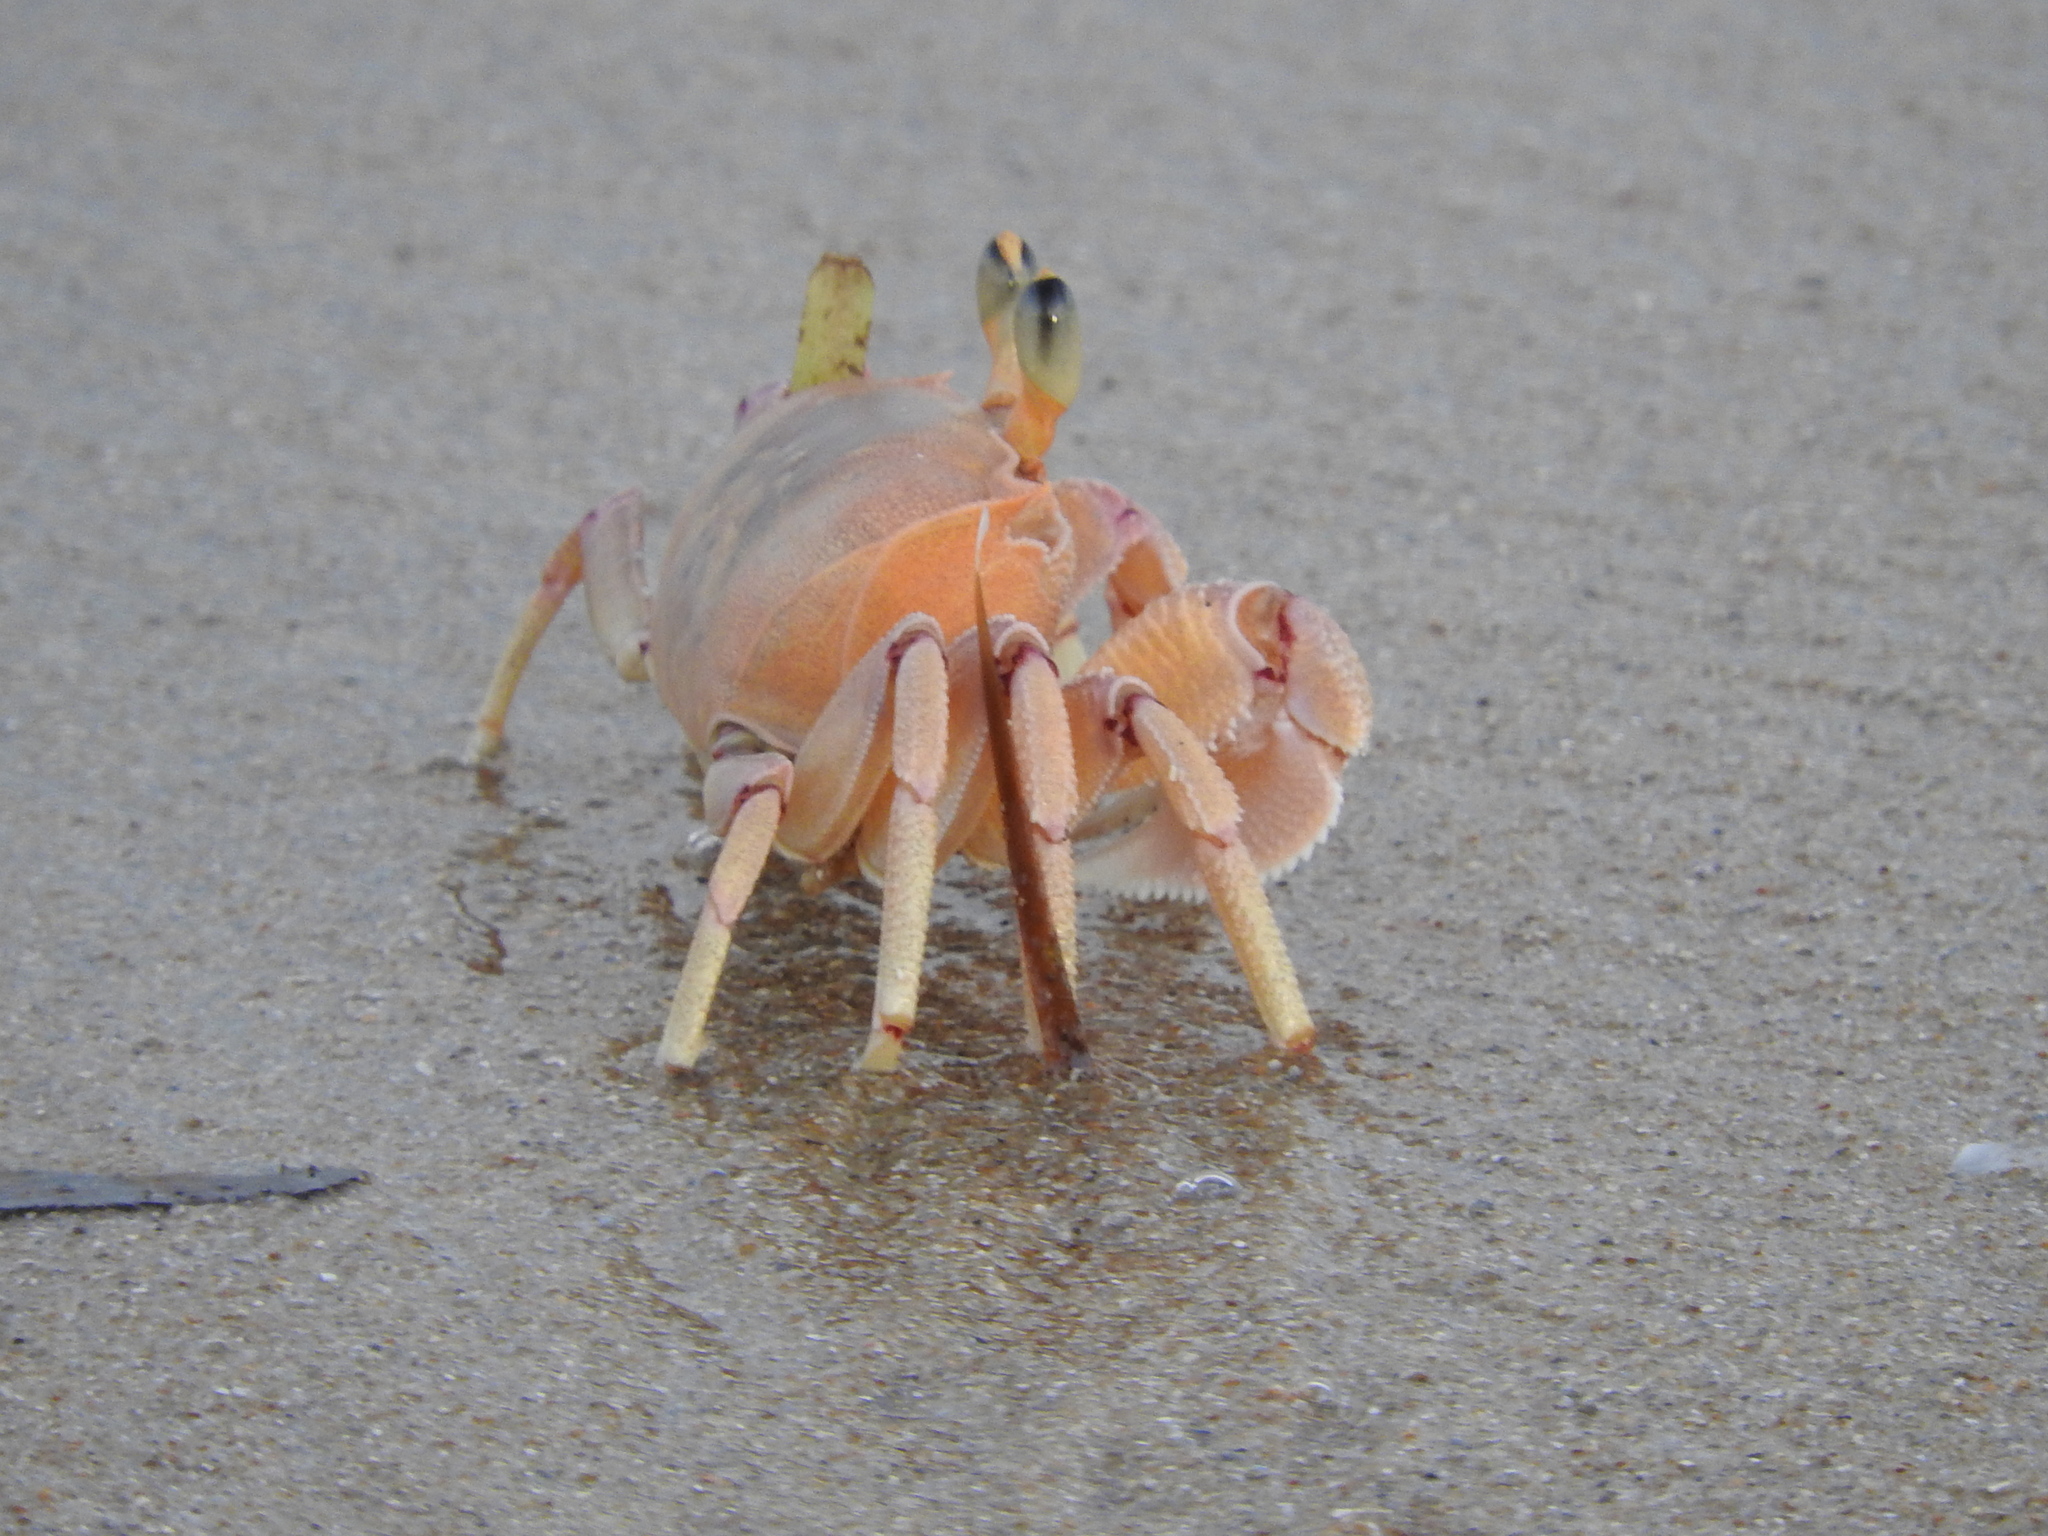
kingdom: Animalia
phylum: Arthropoda
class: Malacostraca
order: Decapoda
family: Ocypodidae
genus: Ocypode
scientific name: Ocypode ryderi
